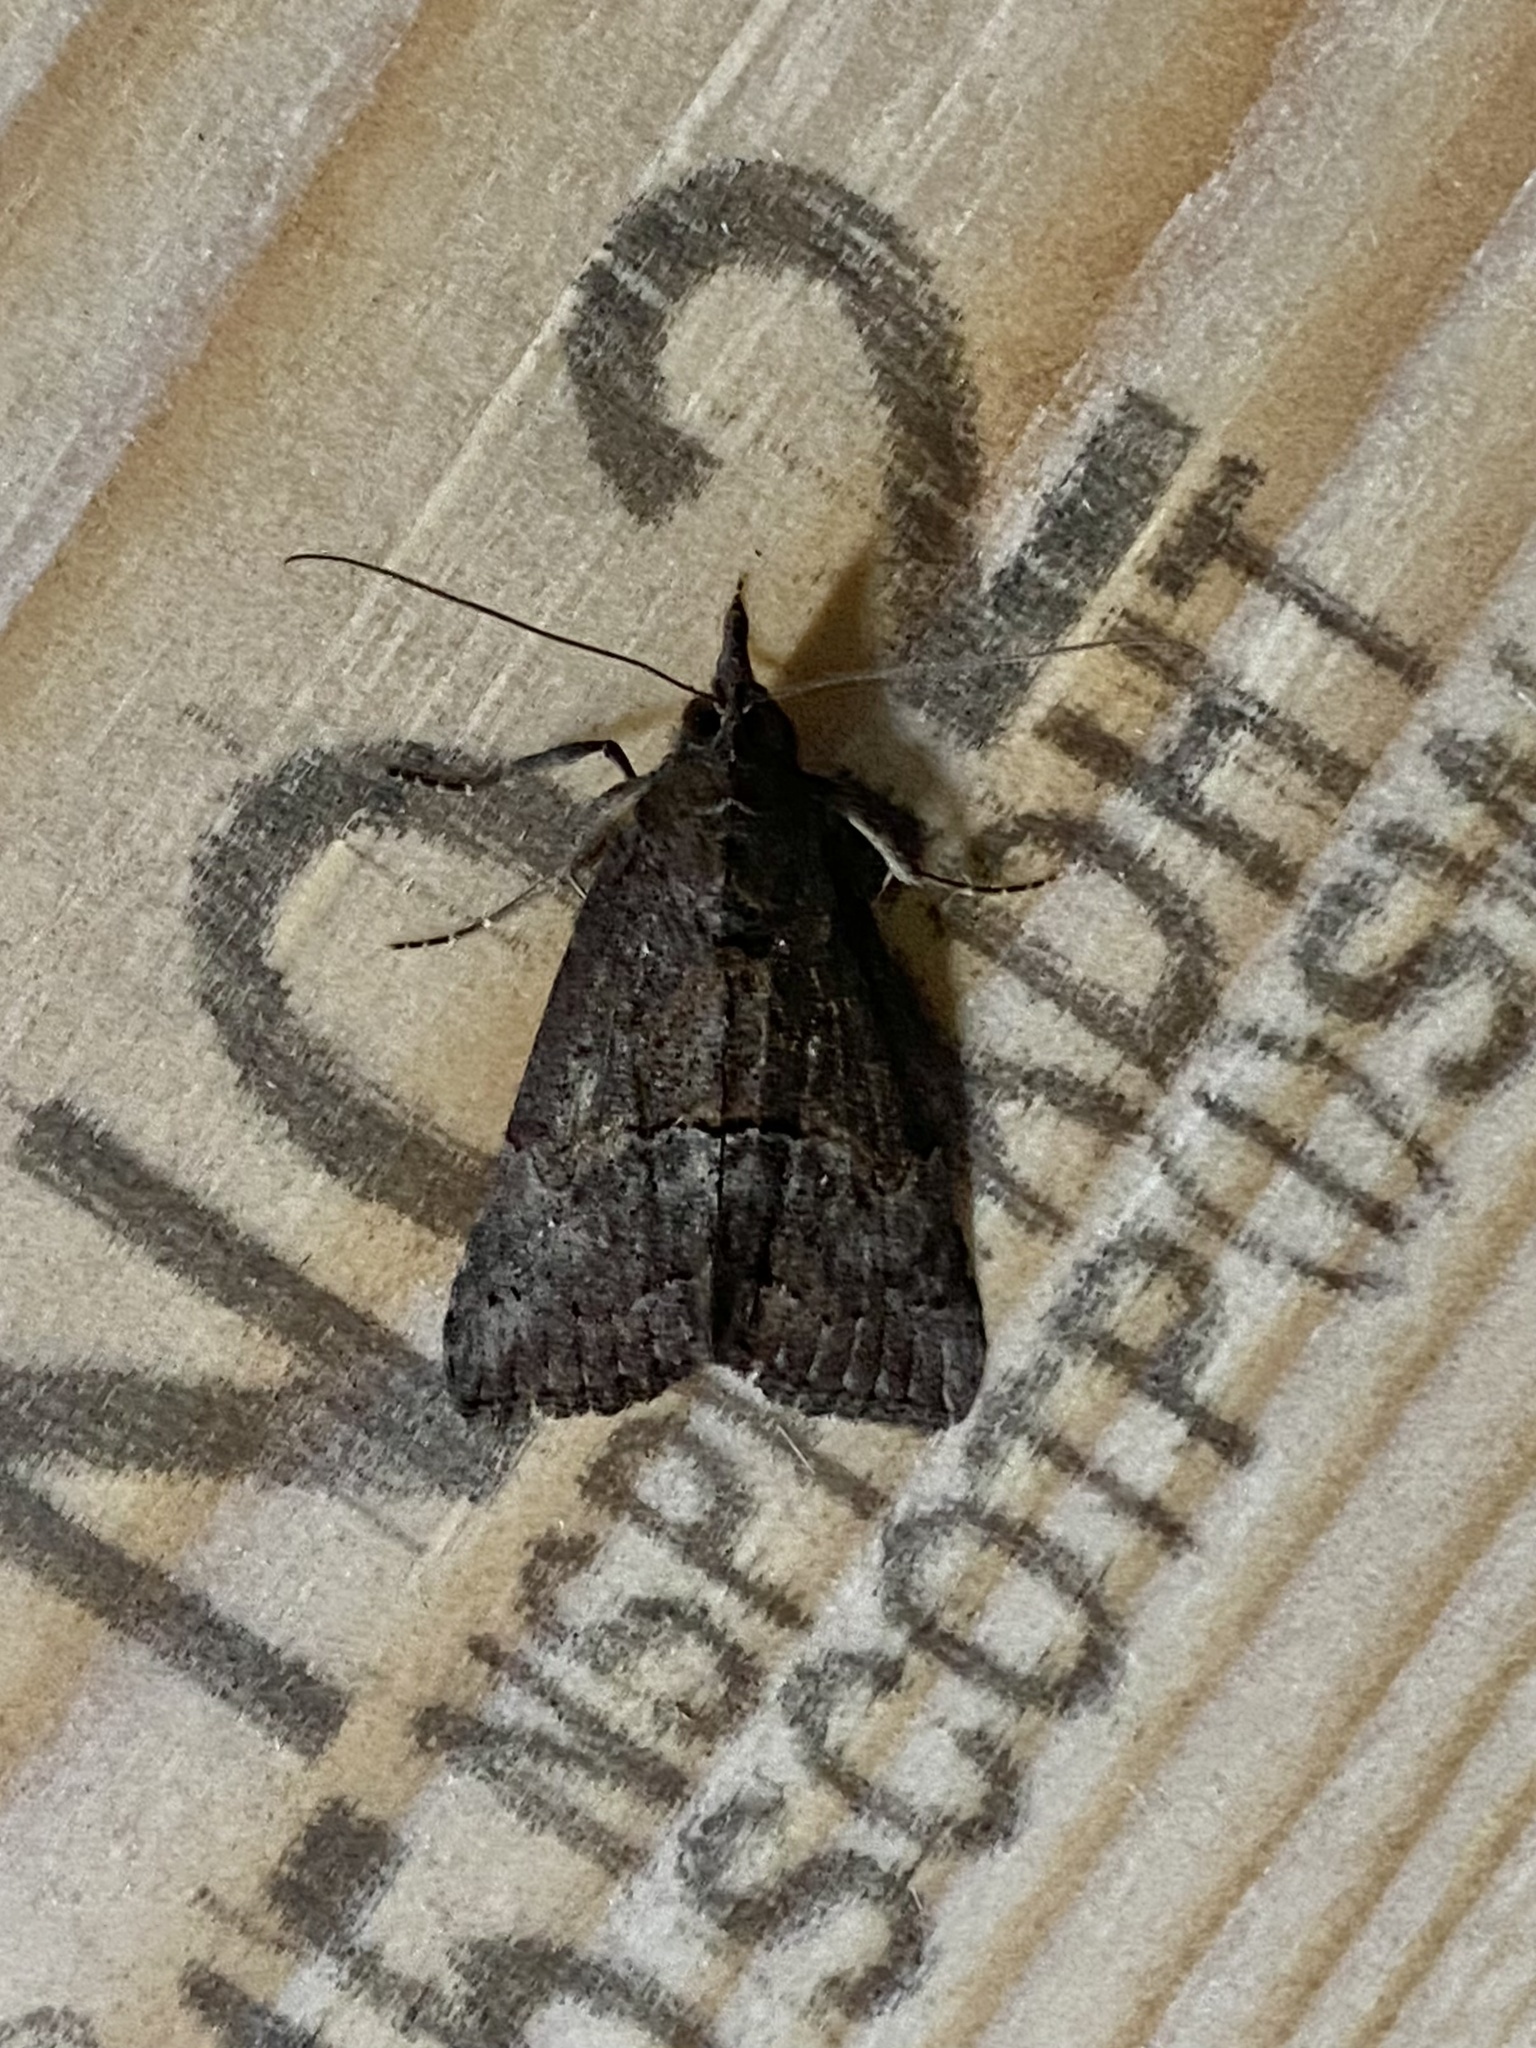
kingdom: Animalia
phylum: Arthropoda
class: Insecta
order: Lepidoptera
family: Erebidae
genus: Hypena
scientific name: Hypena scabra
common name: Green cloverworm
